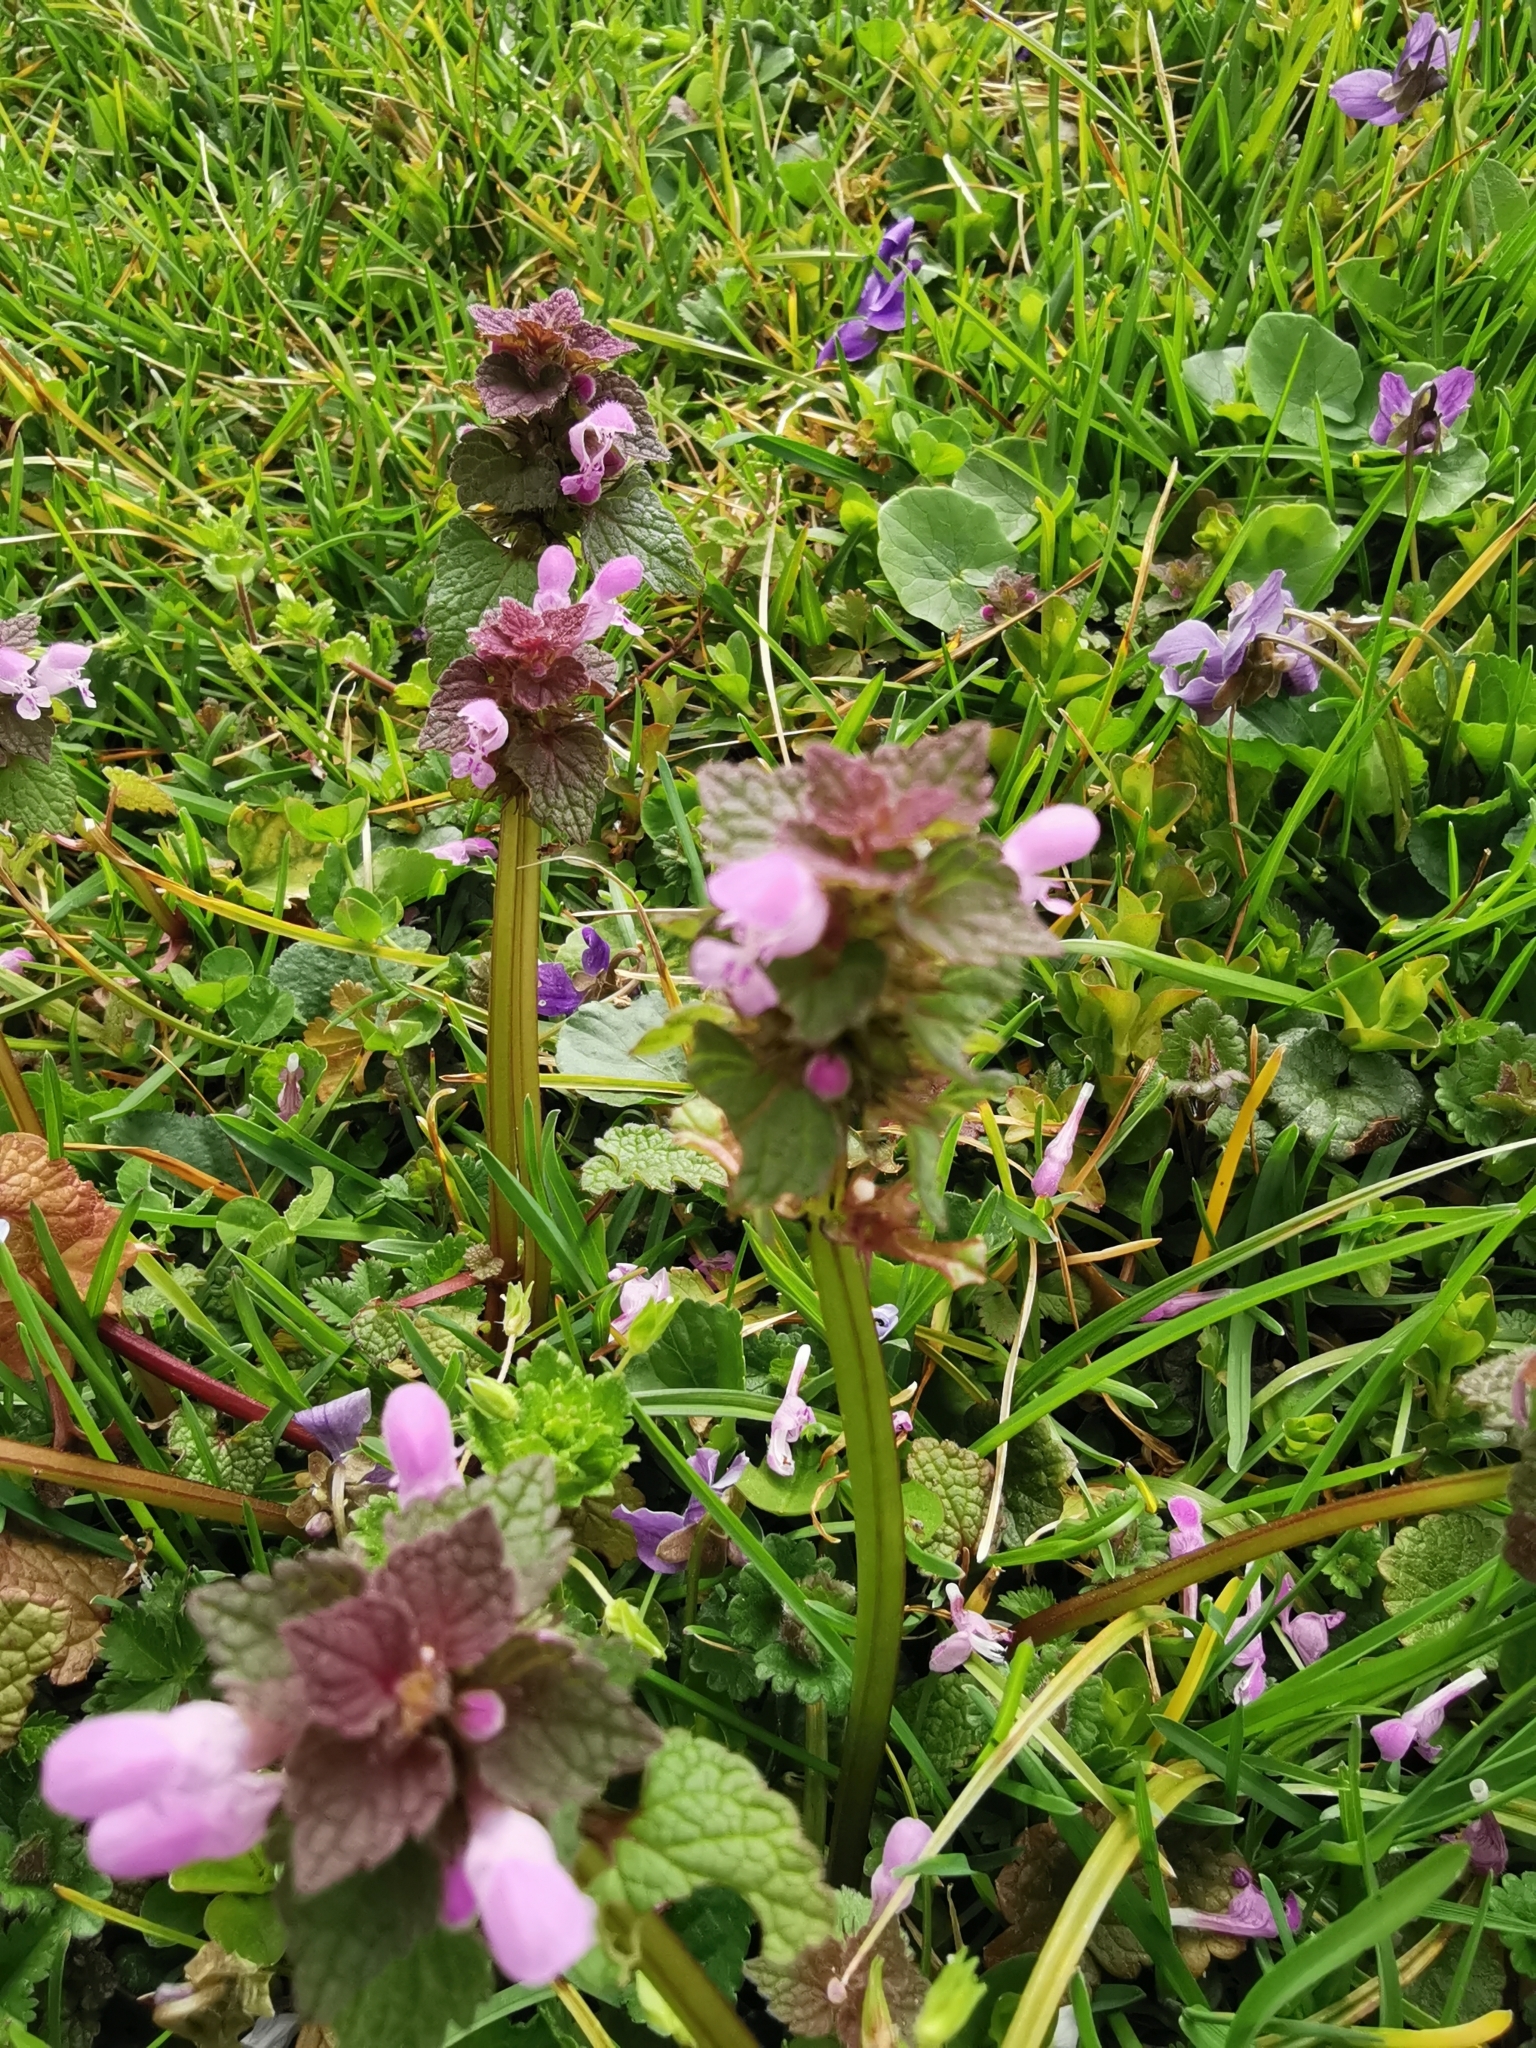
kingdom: Plantae
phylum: Tracheophyta
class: Magnoliopsida
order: Lamiales
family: Lamiaceae
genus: Lamium
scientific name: Lamium purpureum
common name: Red dead-nettle
